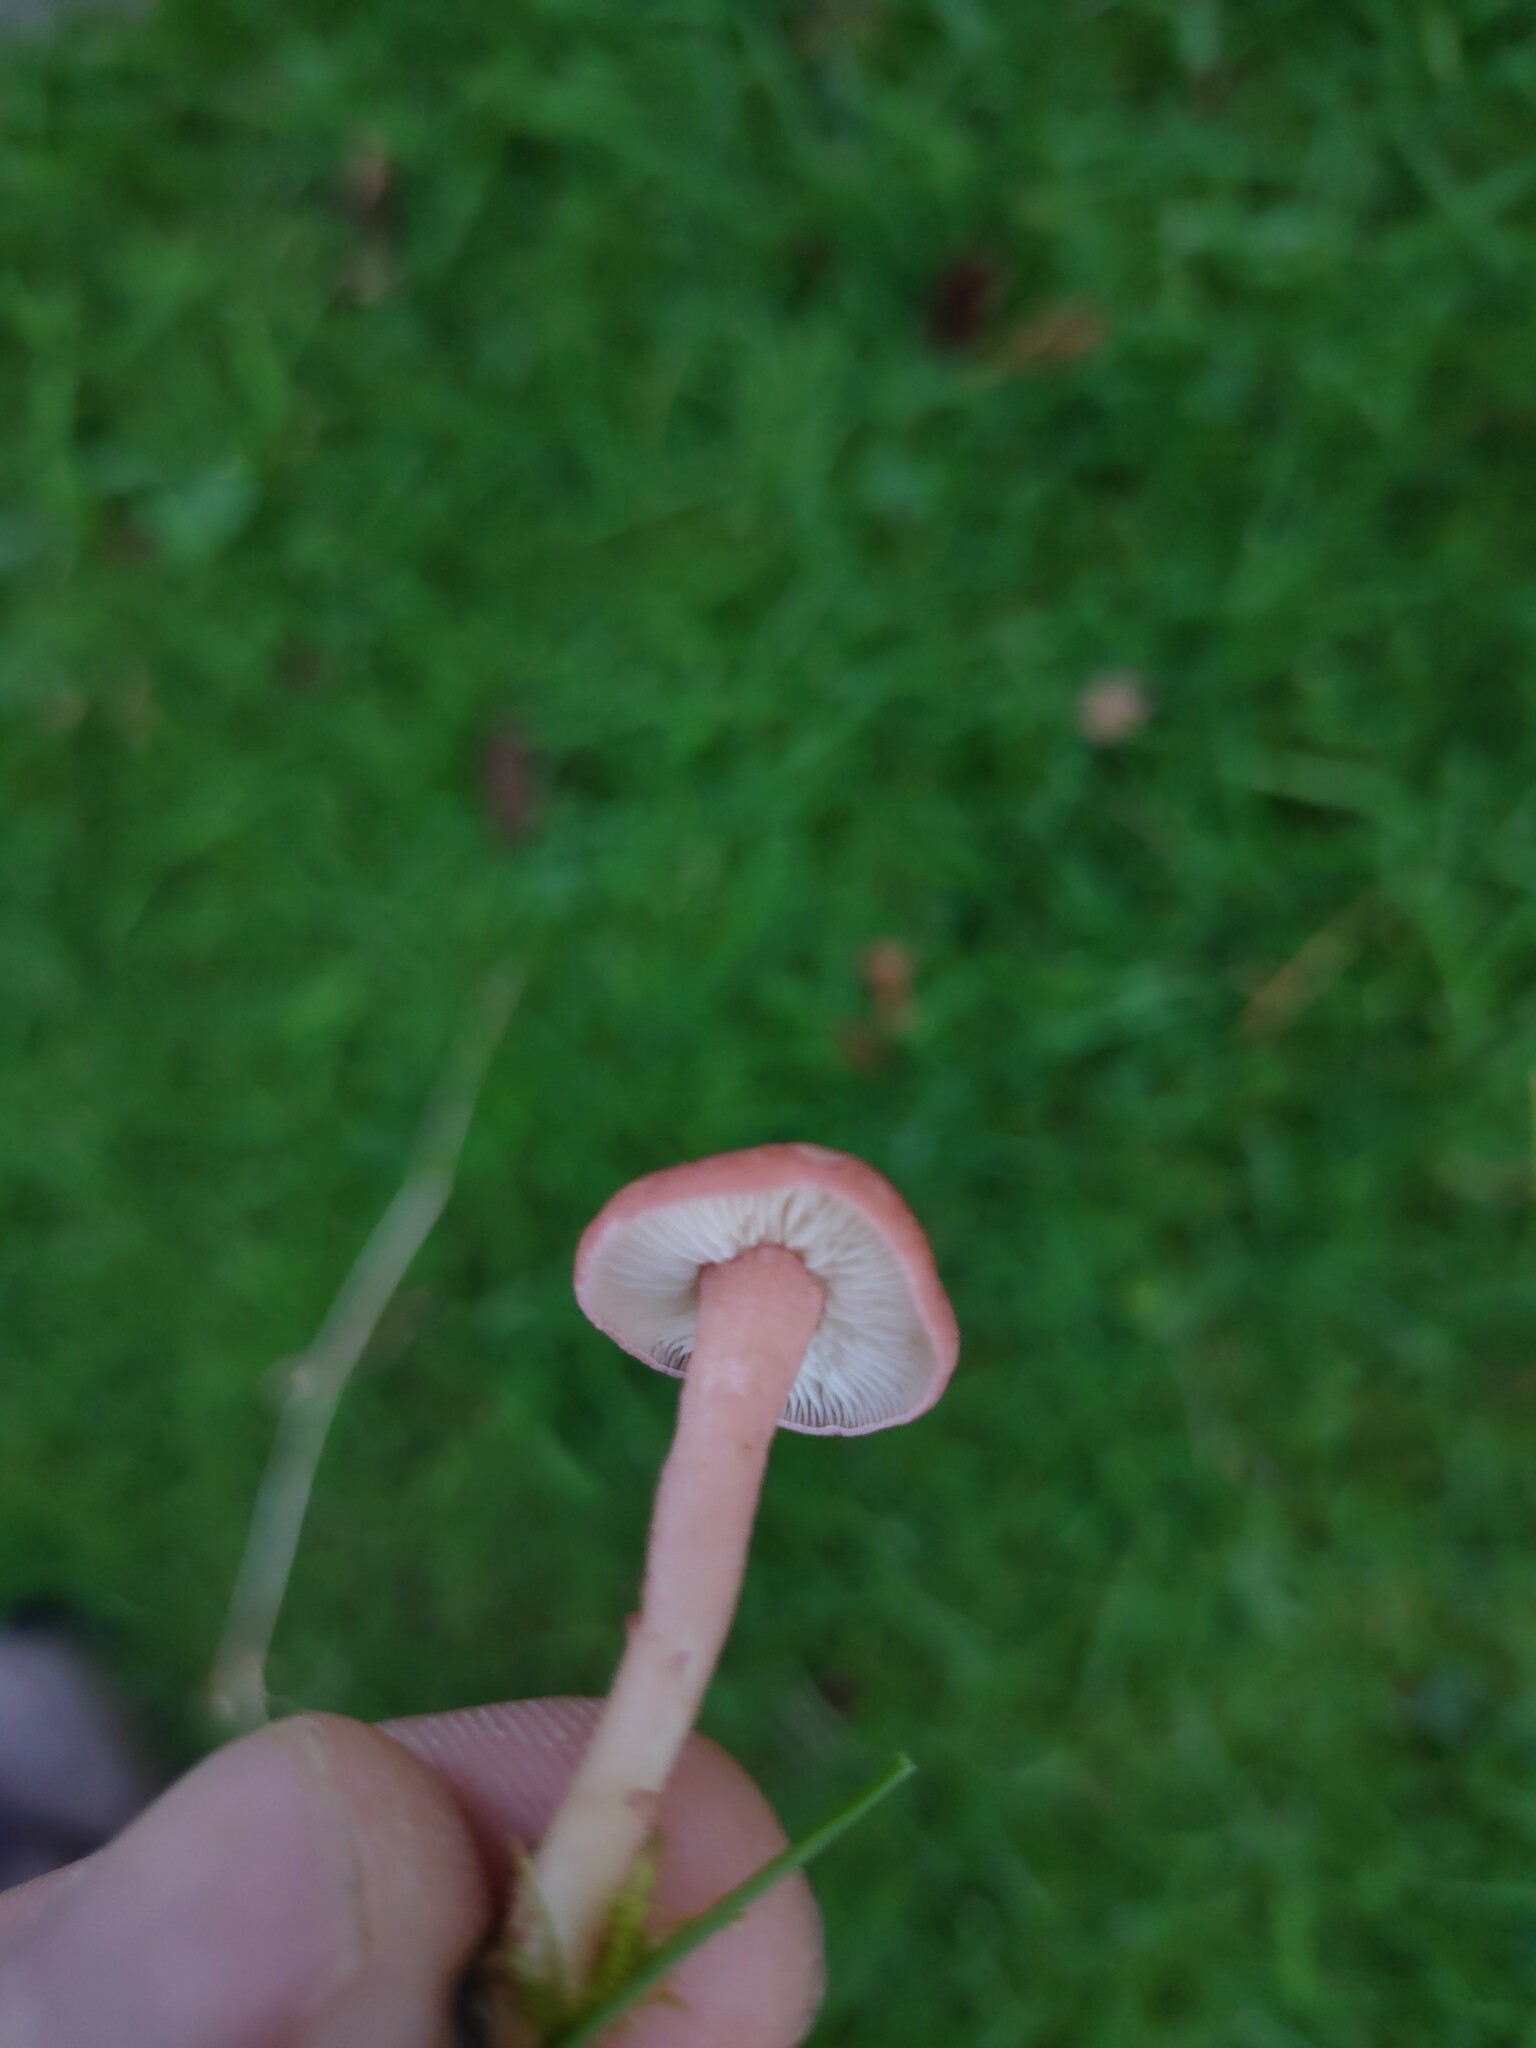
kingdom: Fungi
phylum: Basidiomycota
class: Agaricomycetes
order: Agaricales
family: Lyophyllaceae
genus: Calocybe
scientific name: Calocybe carnea
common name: Pink domecap
